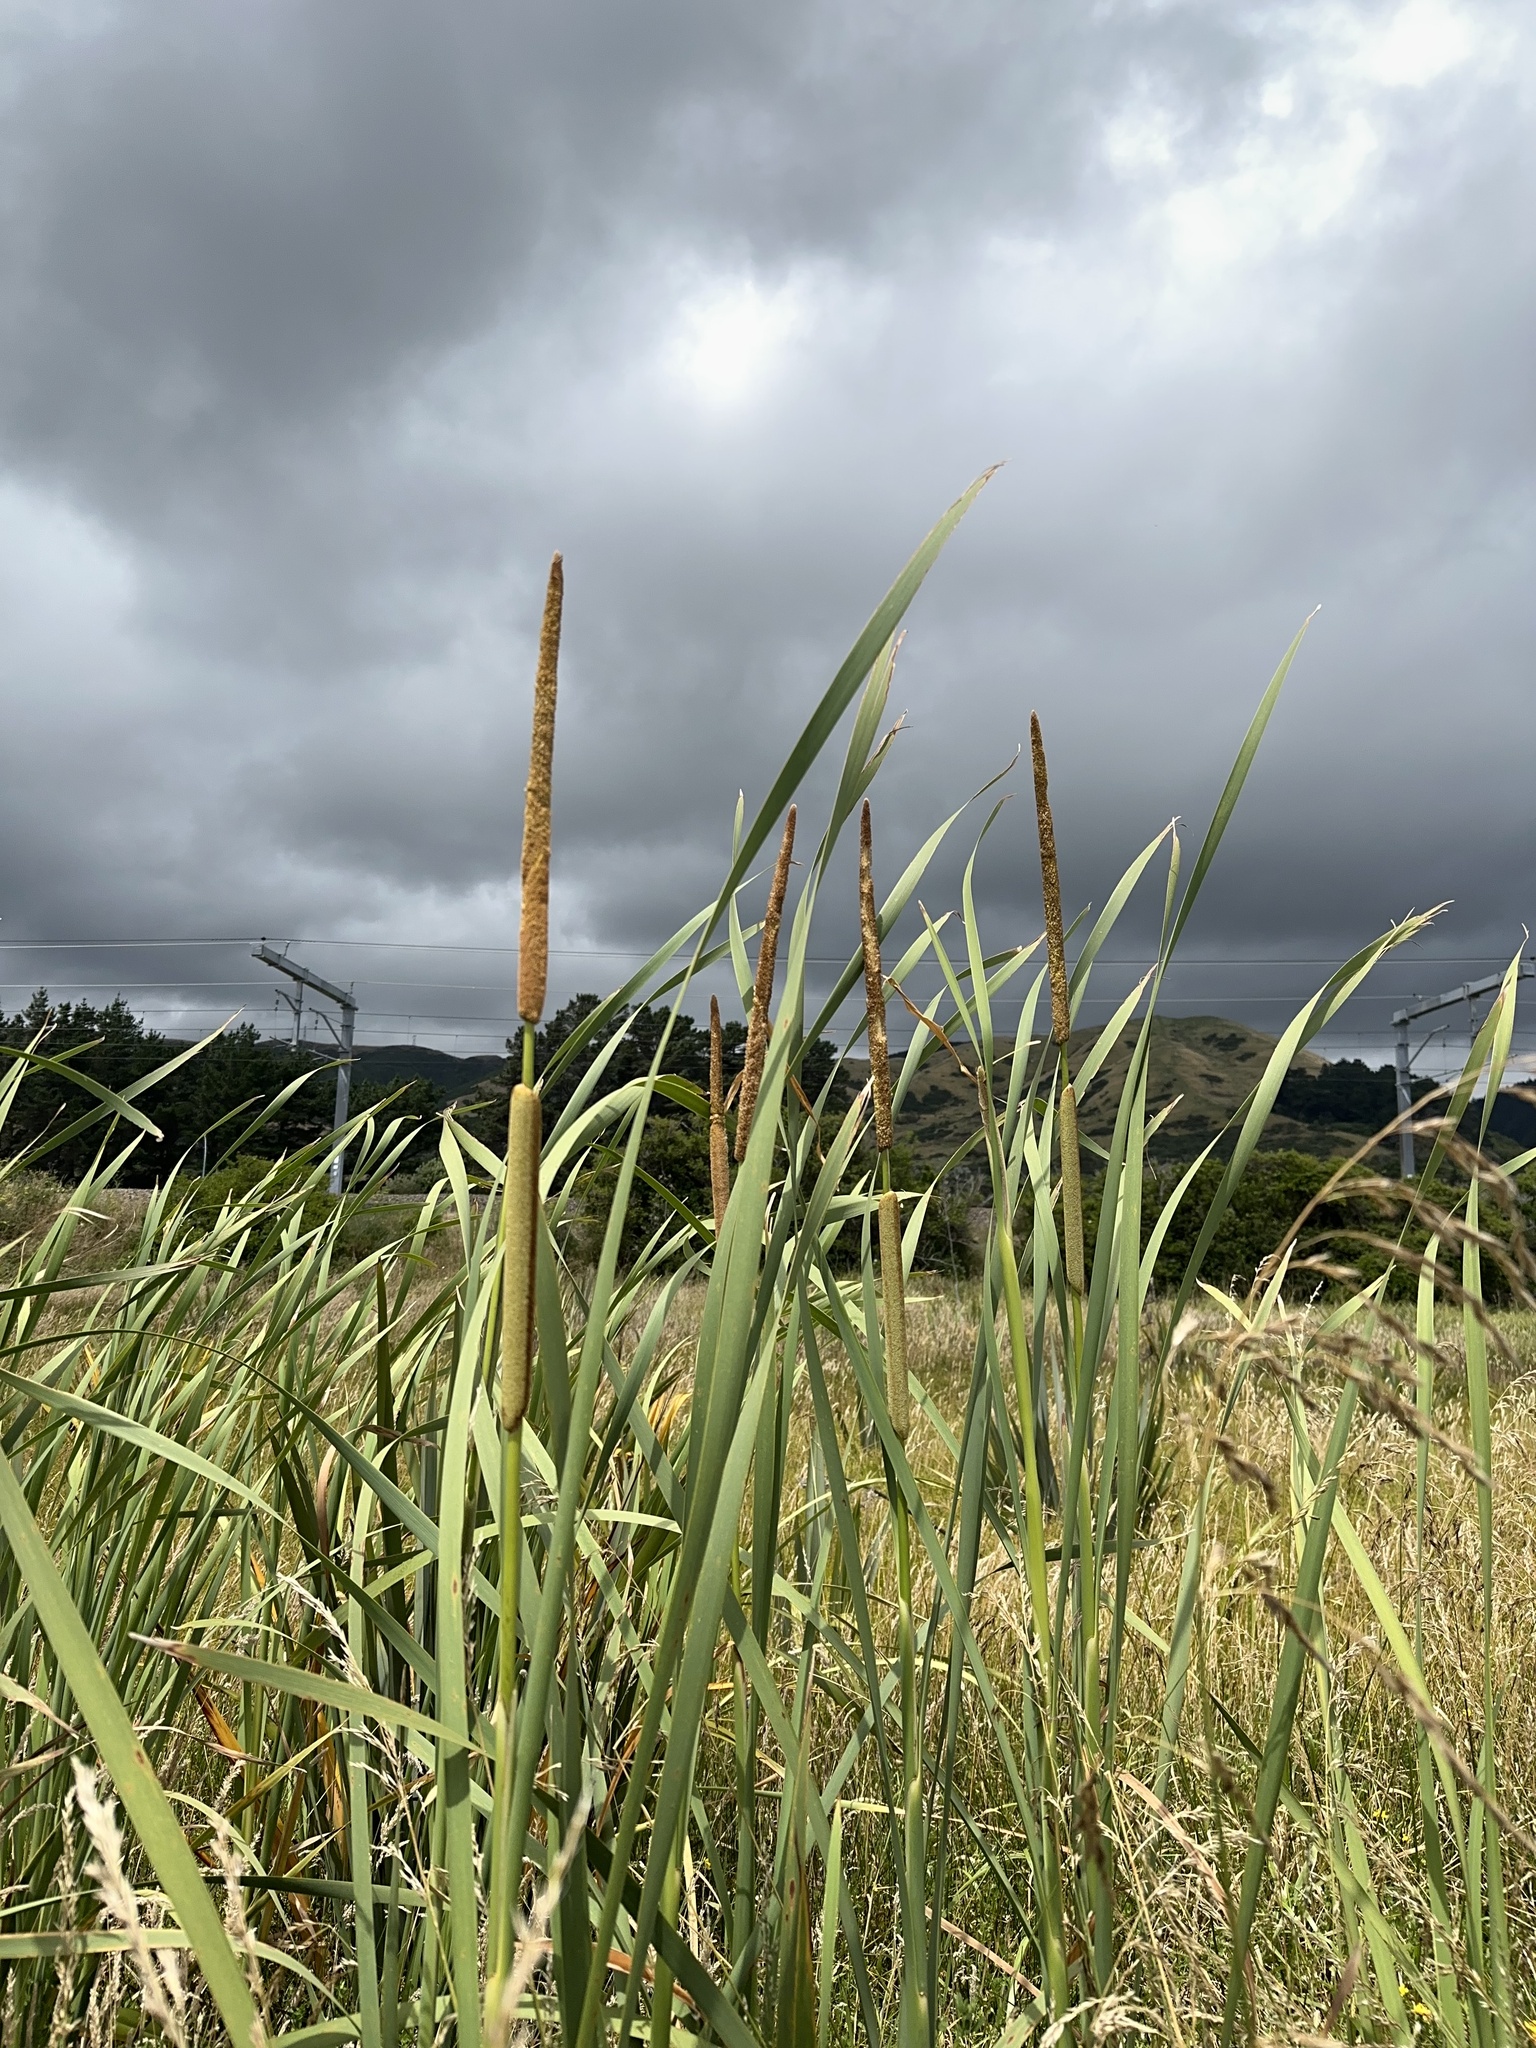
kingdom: Plantae
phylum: Tracheophyta
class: Liliopsida
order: Poales
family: Typhaceae
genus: Typha
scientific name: Typha orientalis
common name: Bullrush
